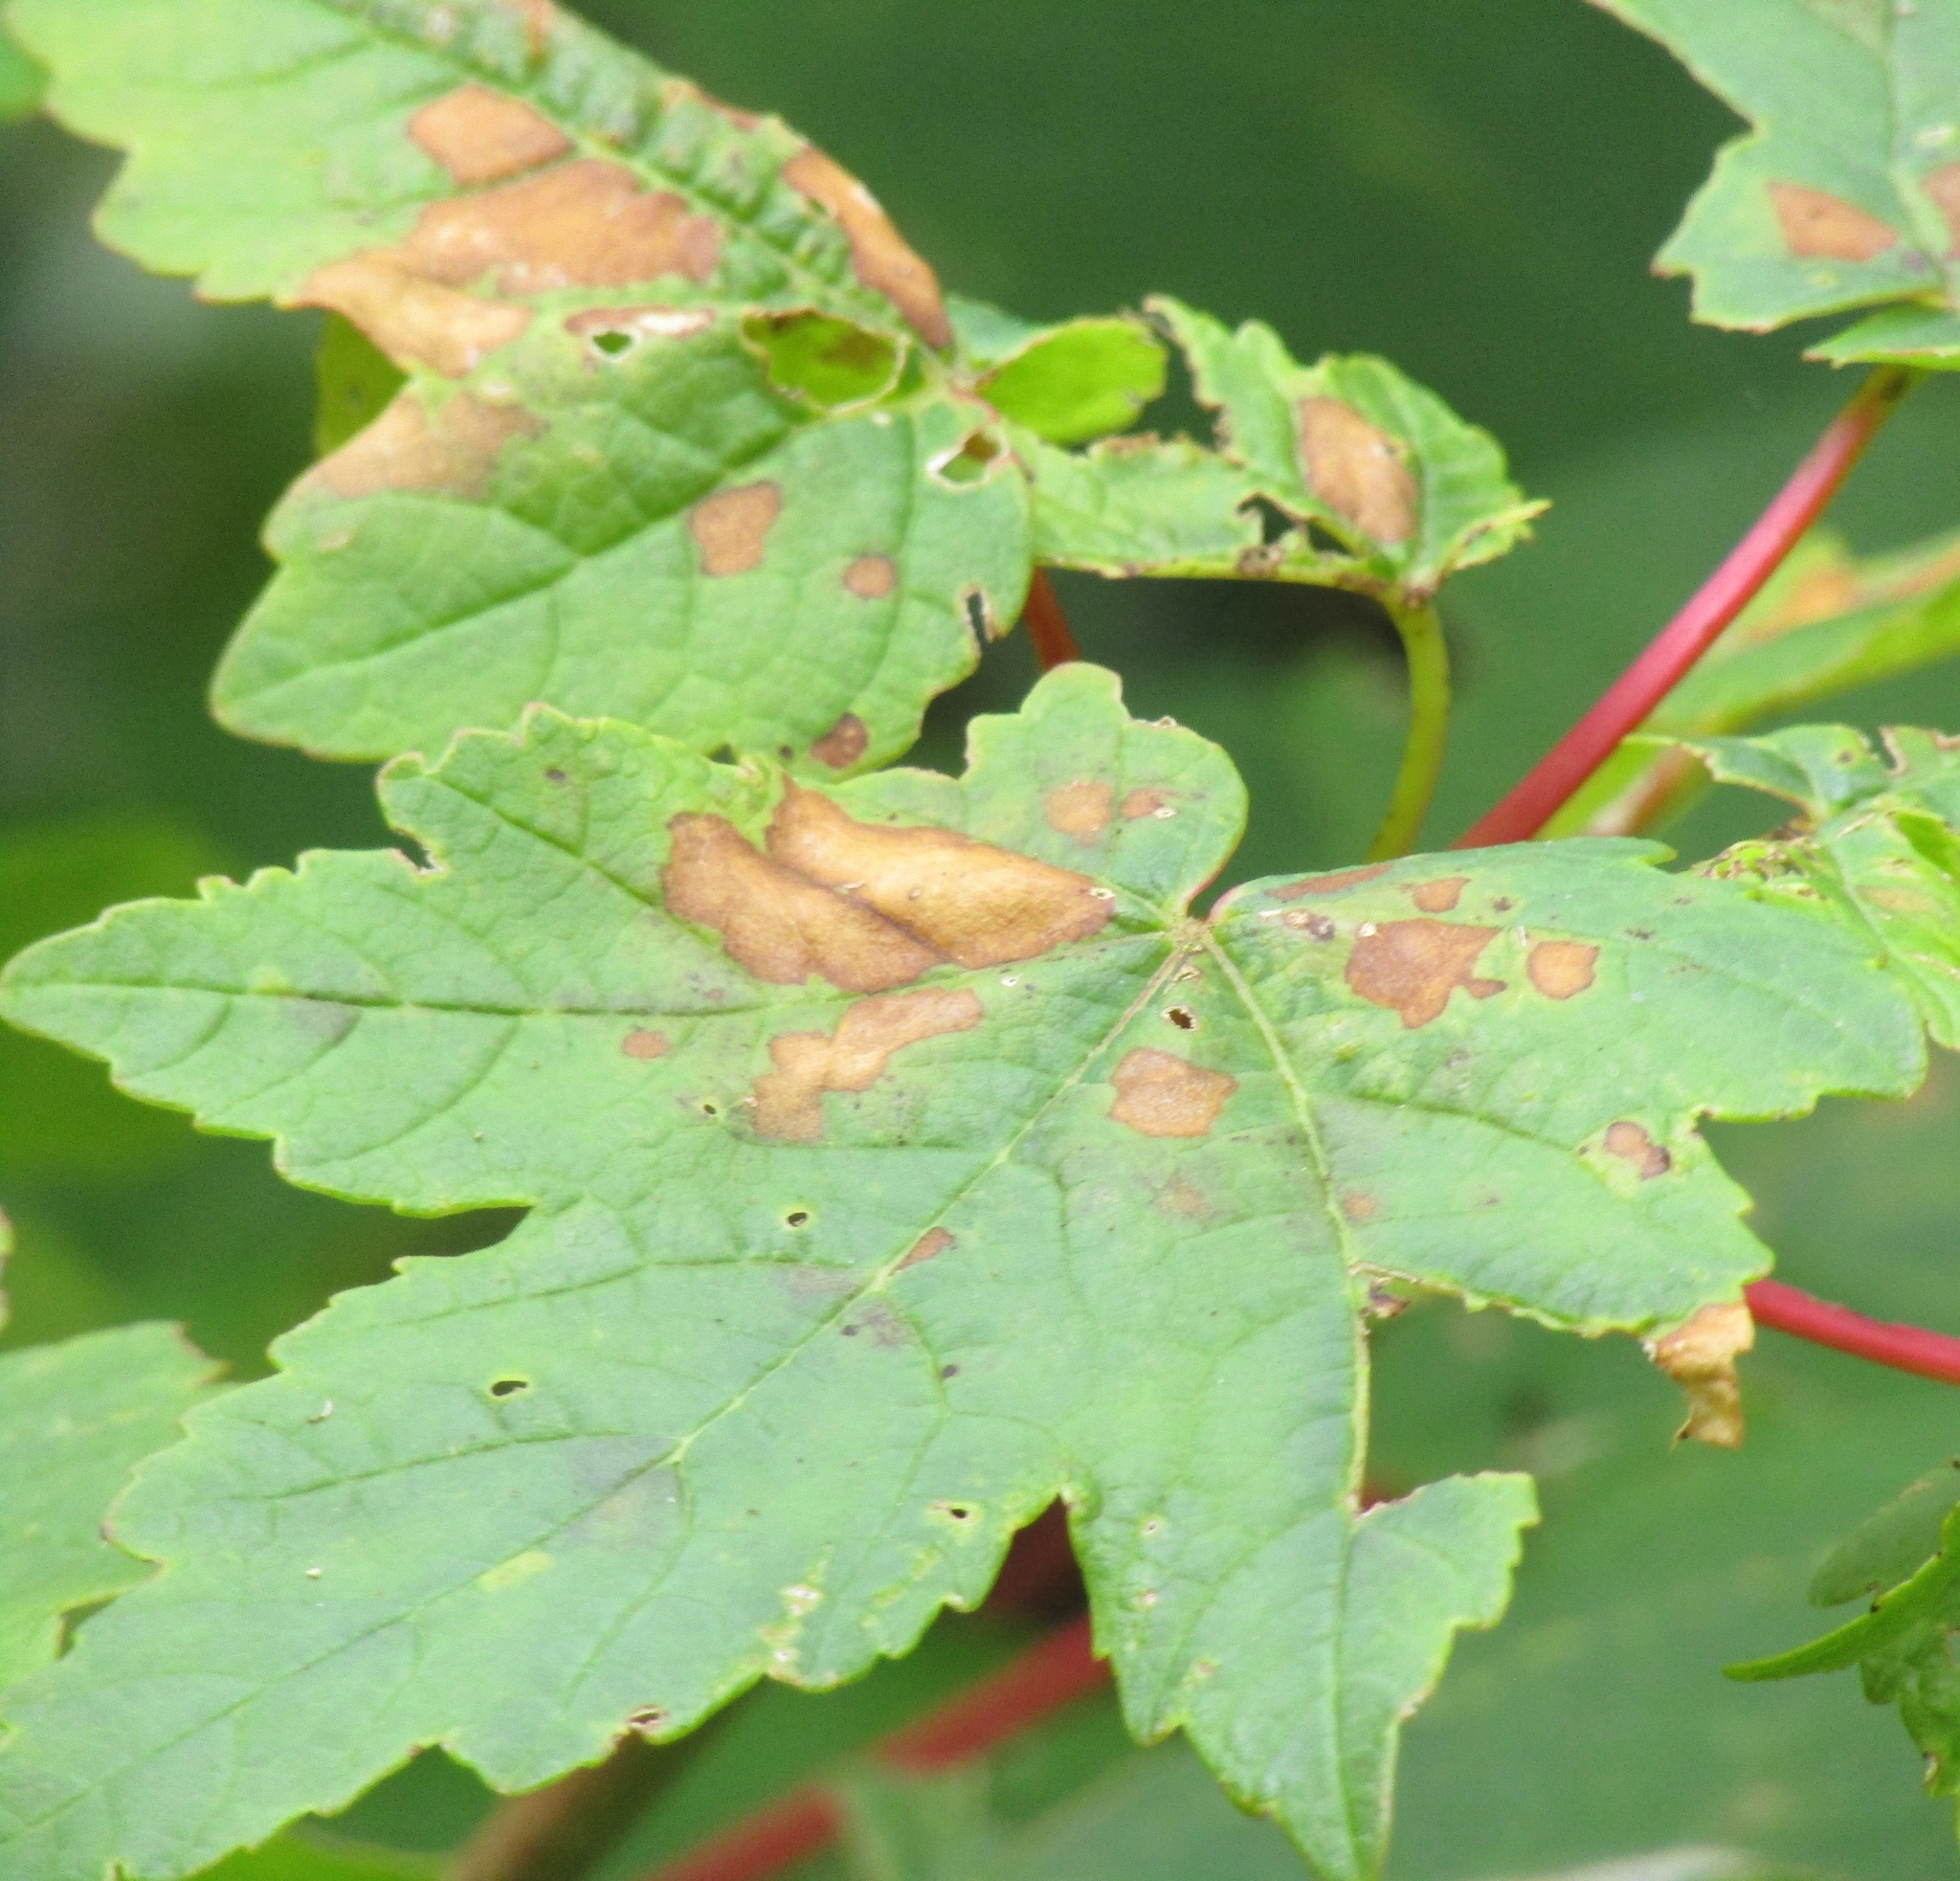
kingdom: Plantae
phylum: Tracheophyta
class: Magnoliopsida
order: Sapindales
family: Sapindaceae
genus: Acer
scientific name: Acer pseudoplatanus
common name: Sycamore
